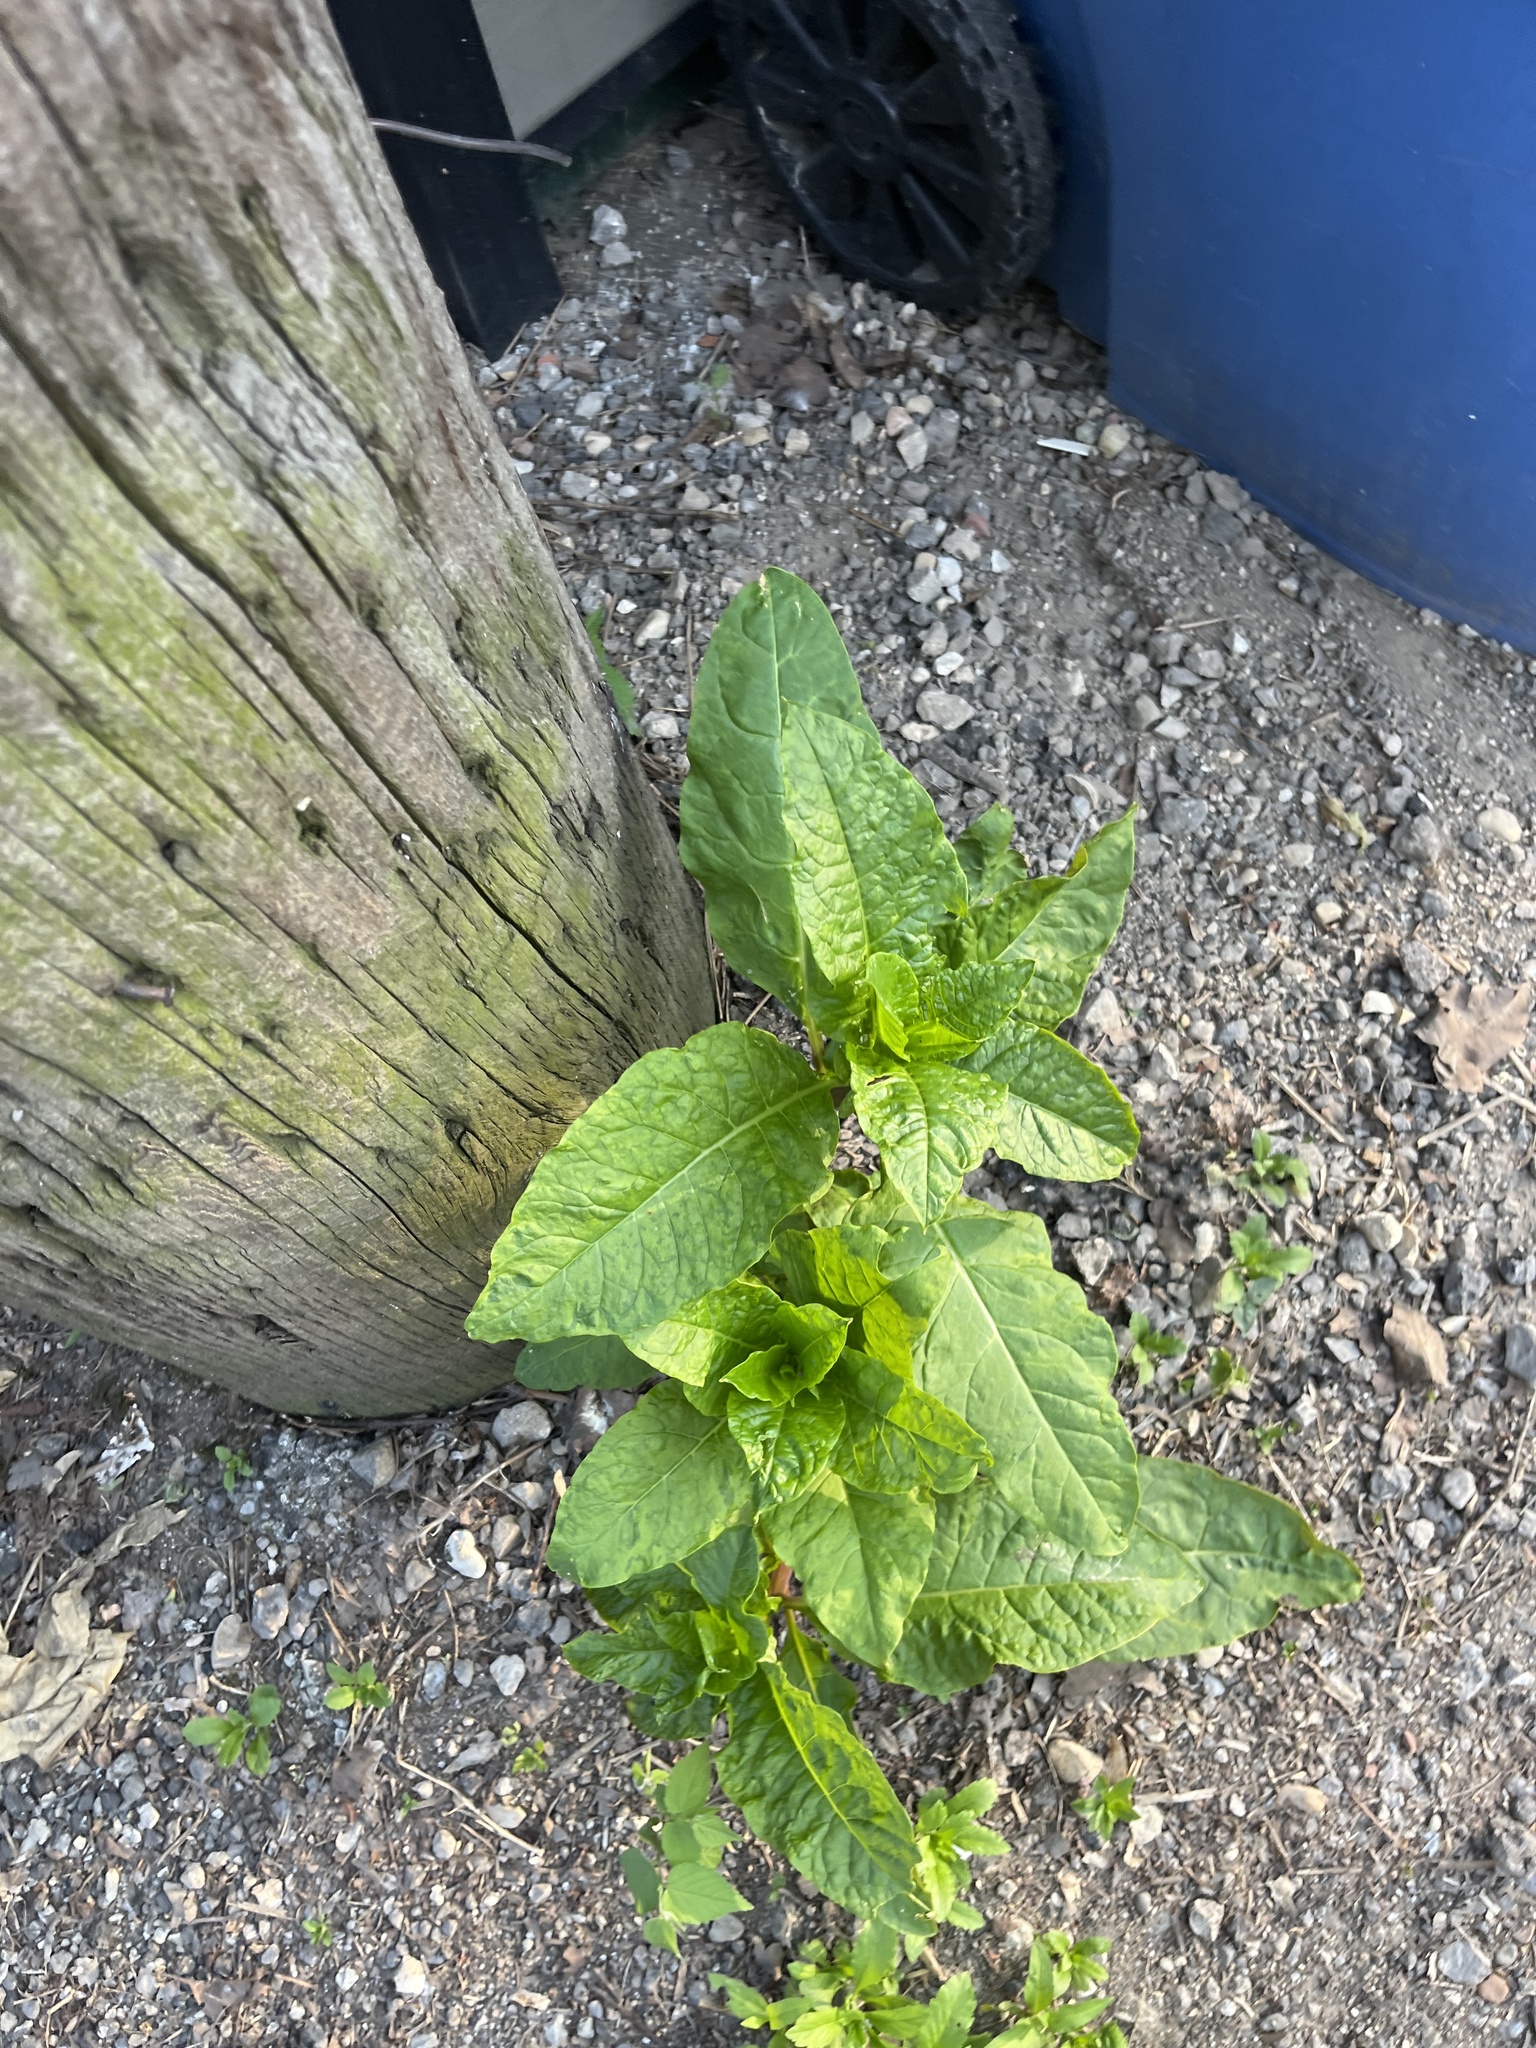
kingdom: Plantae
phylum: Tracheophyta
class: Magnoliopsida
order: Caryophyllales
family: Phytolaccaceae
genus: Phytolacca
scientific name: Phytolacca americana
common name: American pokeweed
